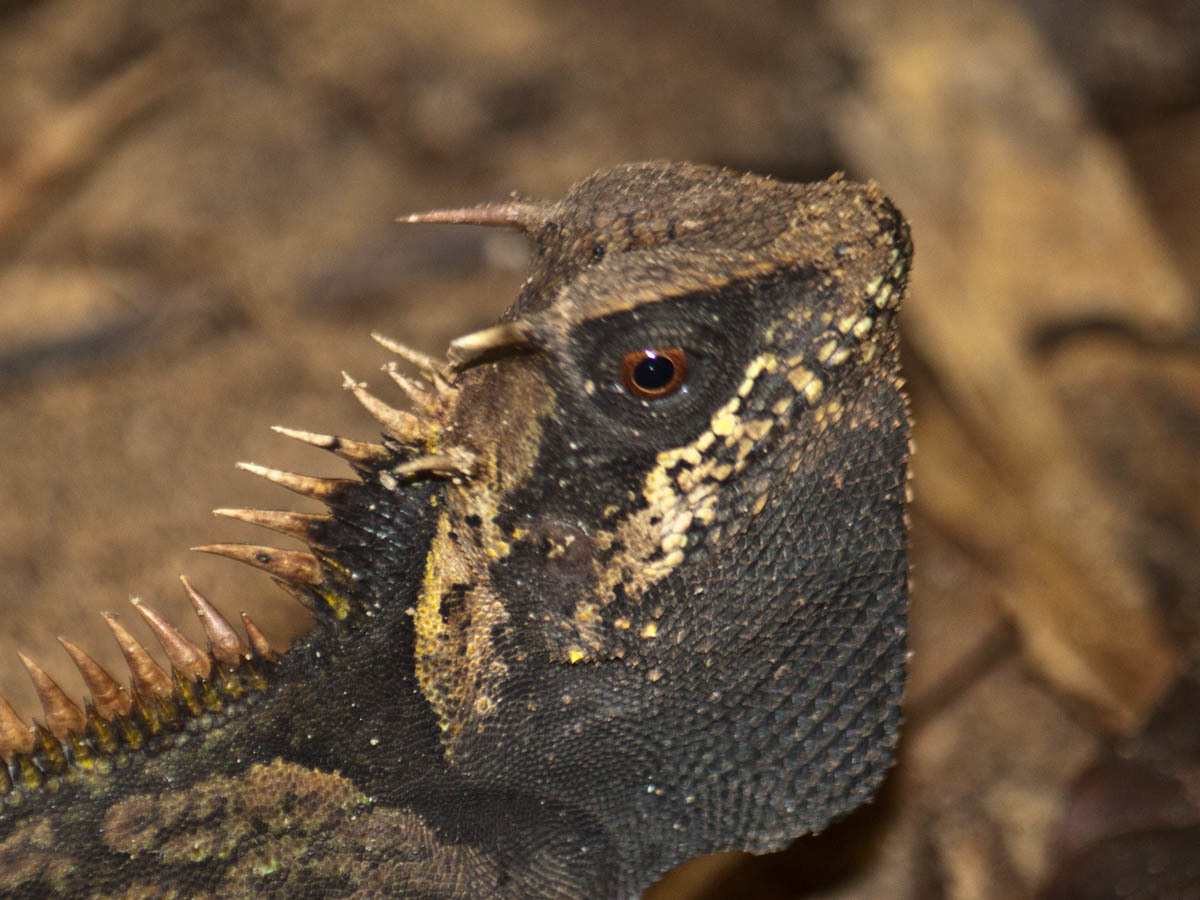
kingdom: Animalia
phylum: Chordata
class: Squamata
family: Agamidae
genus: Acanthosaura
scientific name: Acanthosaura cardamomensis
